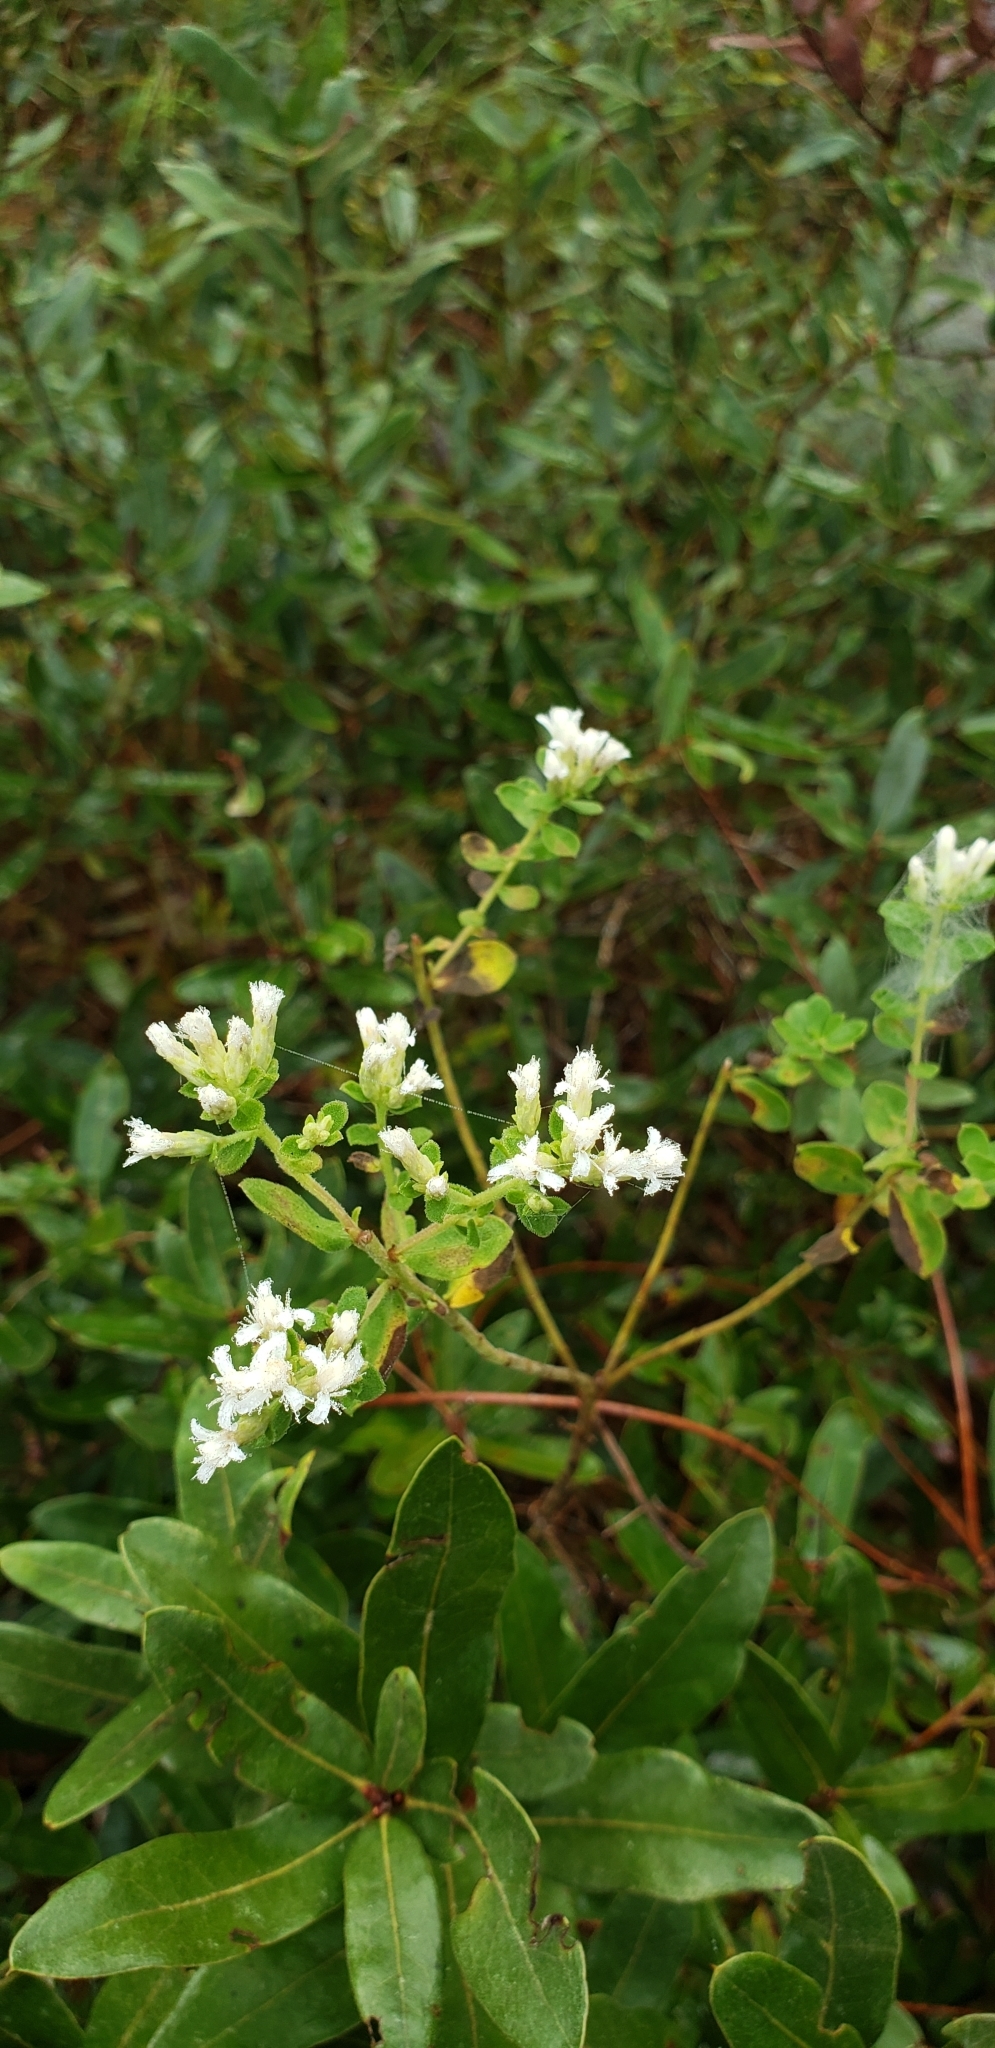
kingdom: Plantae
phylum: Tracheophyta
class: Magnoliopsida
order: Asterales
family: Asteraceae
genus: Sericocarpus
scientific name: Sericocarpus tortifolius
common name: Dixie aster
